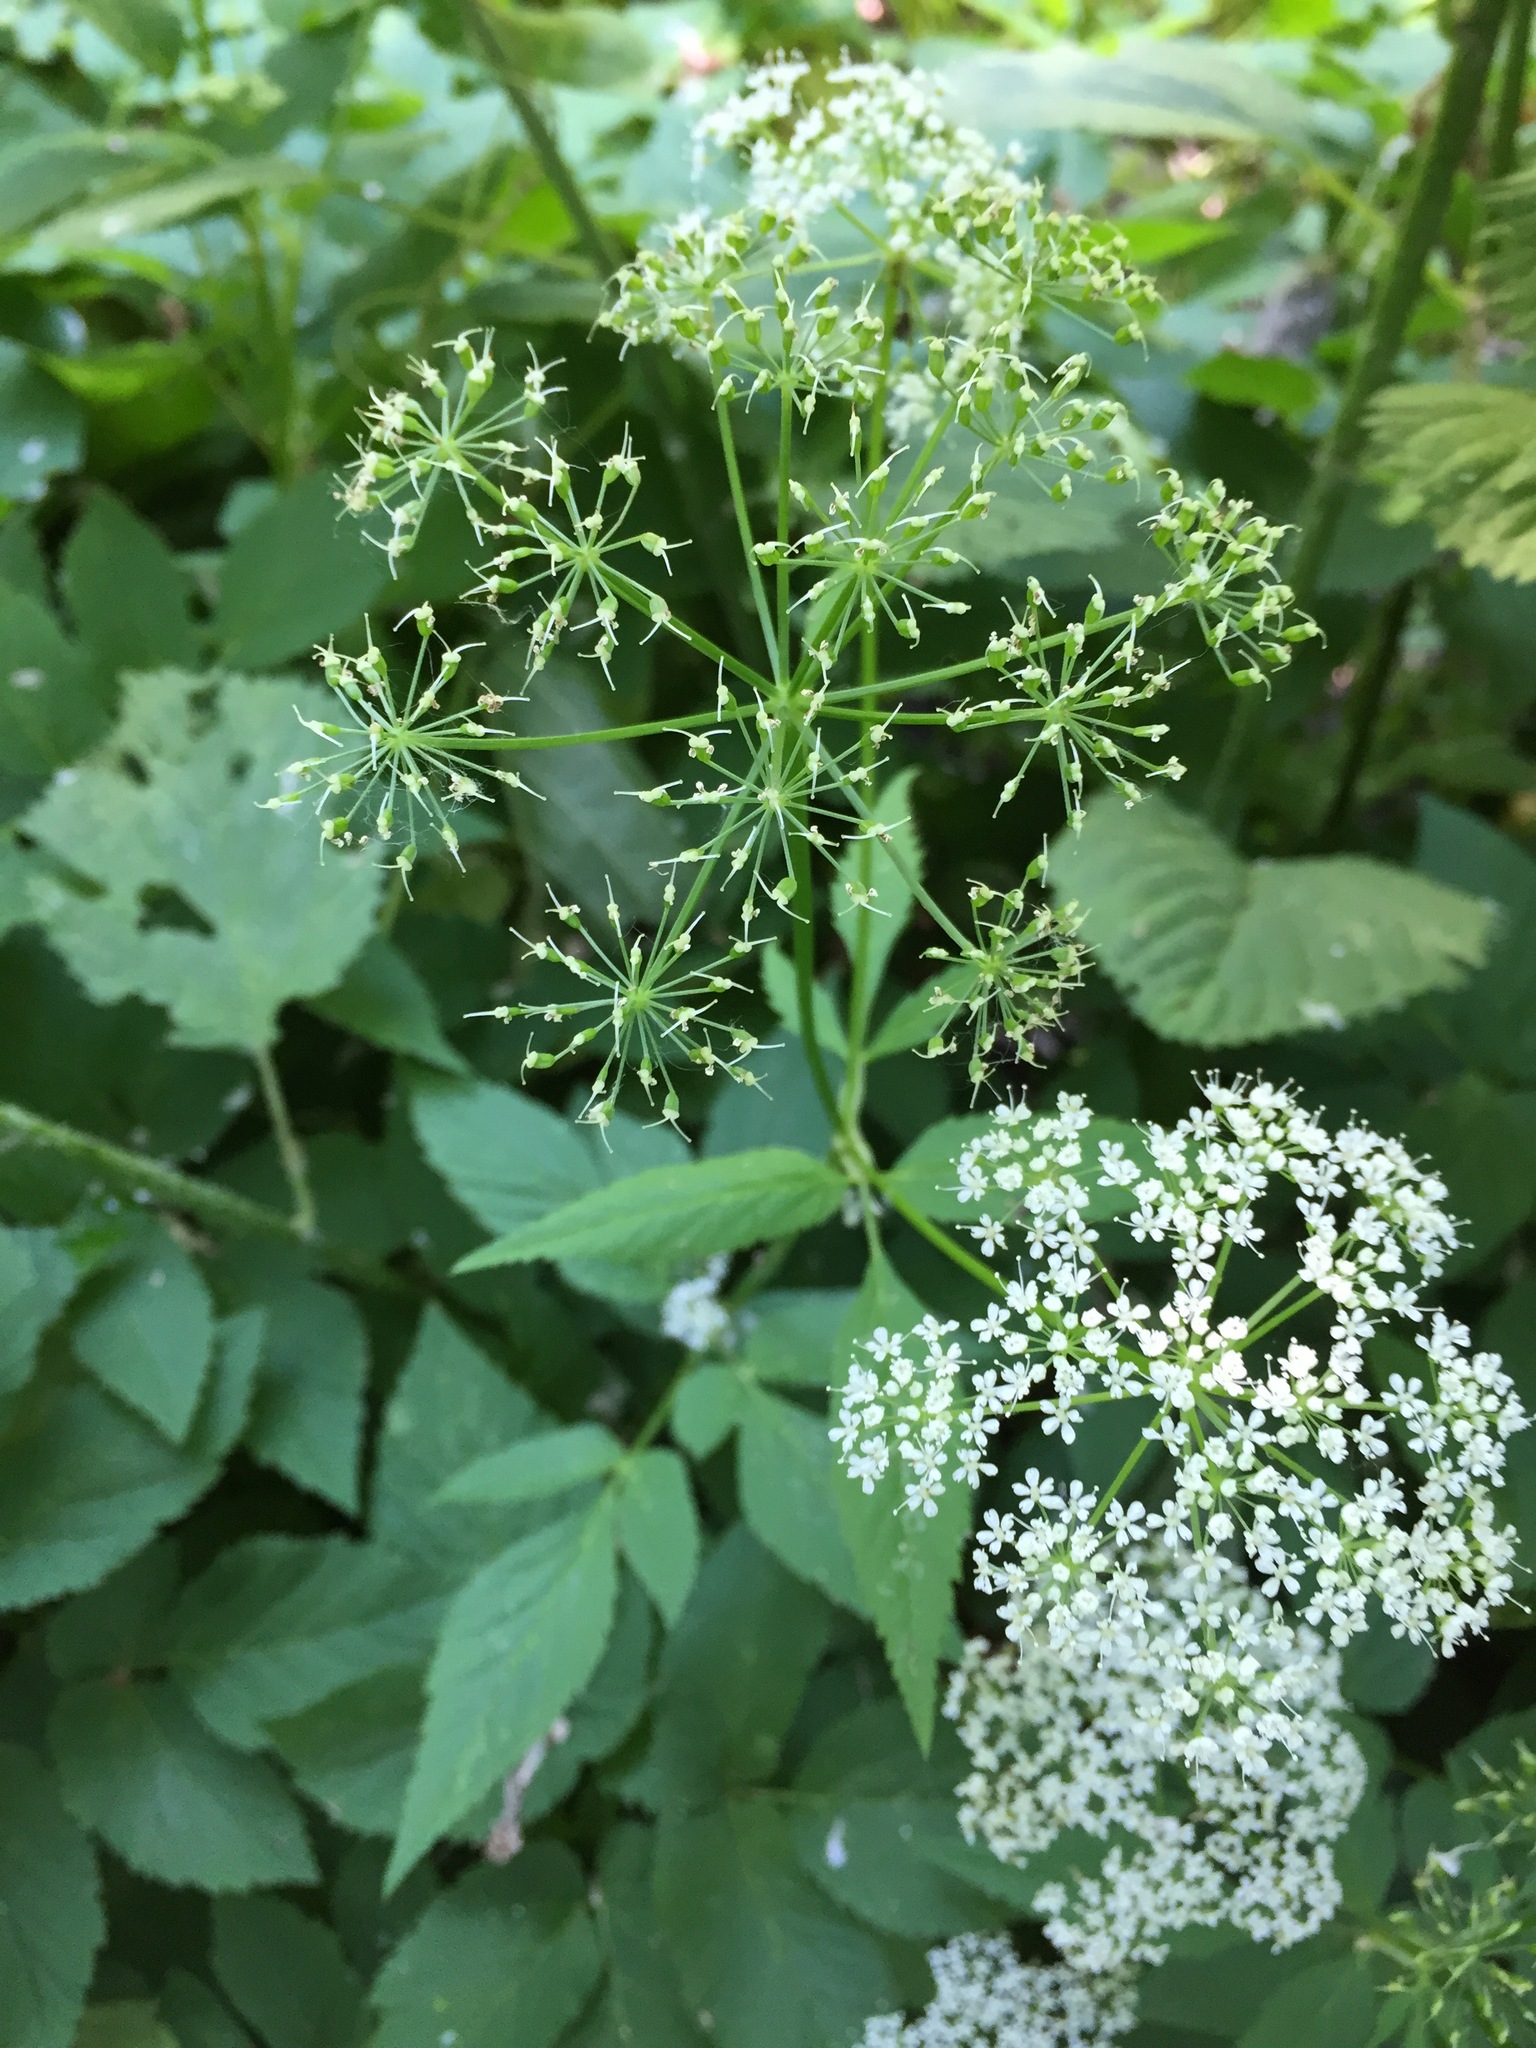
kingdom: Plantae
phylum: Tracheophyta
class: Magnoliopsida
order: Apiales
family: Apiaceae
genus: Aegopodium
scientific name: Aegopodium podagraria
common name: Ground-elder
